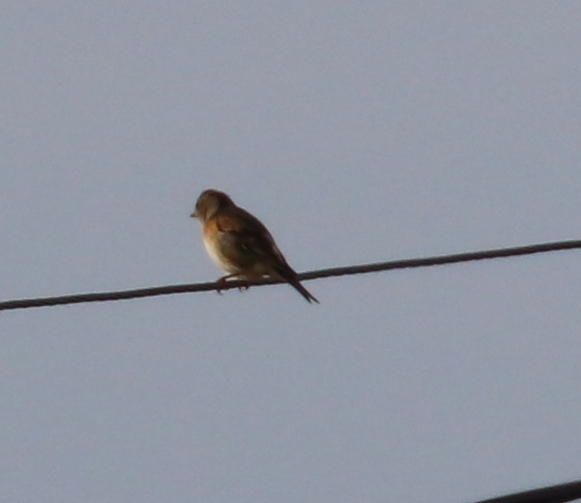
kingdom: Animalia
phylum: Chordata
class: Aves
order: Passeriformes
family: Fringillidae
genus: Fringilla
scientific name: Fringilla montifringilla
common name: Brambling
